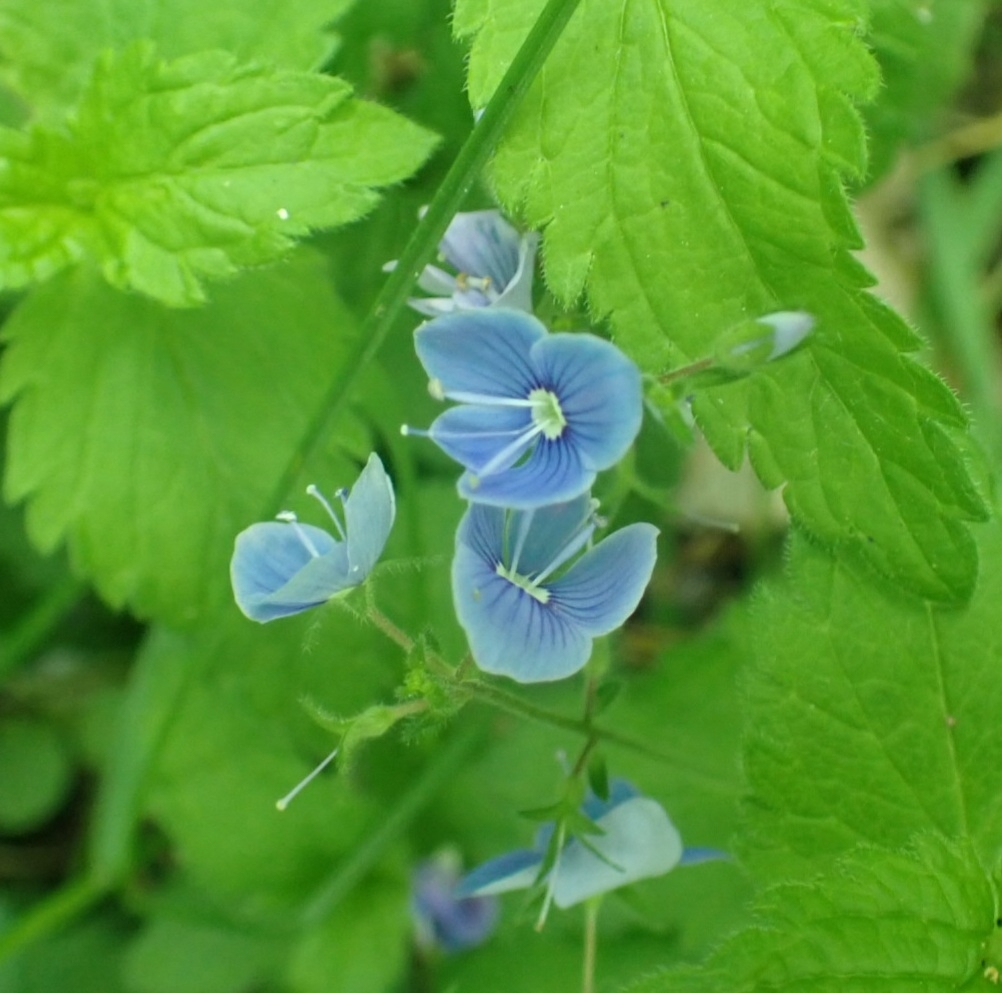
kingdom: Plantae
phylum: Tracheophyta
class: Magnoliopsida
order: Lamiales
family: Plantaginaceae
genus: Veronica
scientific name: Veronica chamaedrys
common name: Germander speedwell
